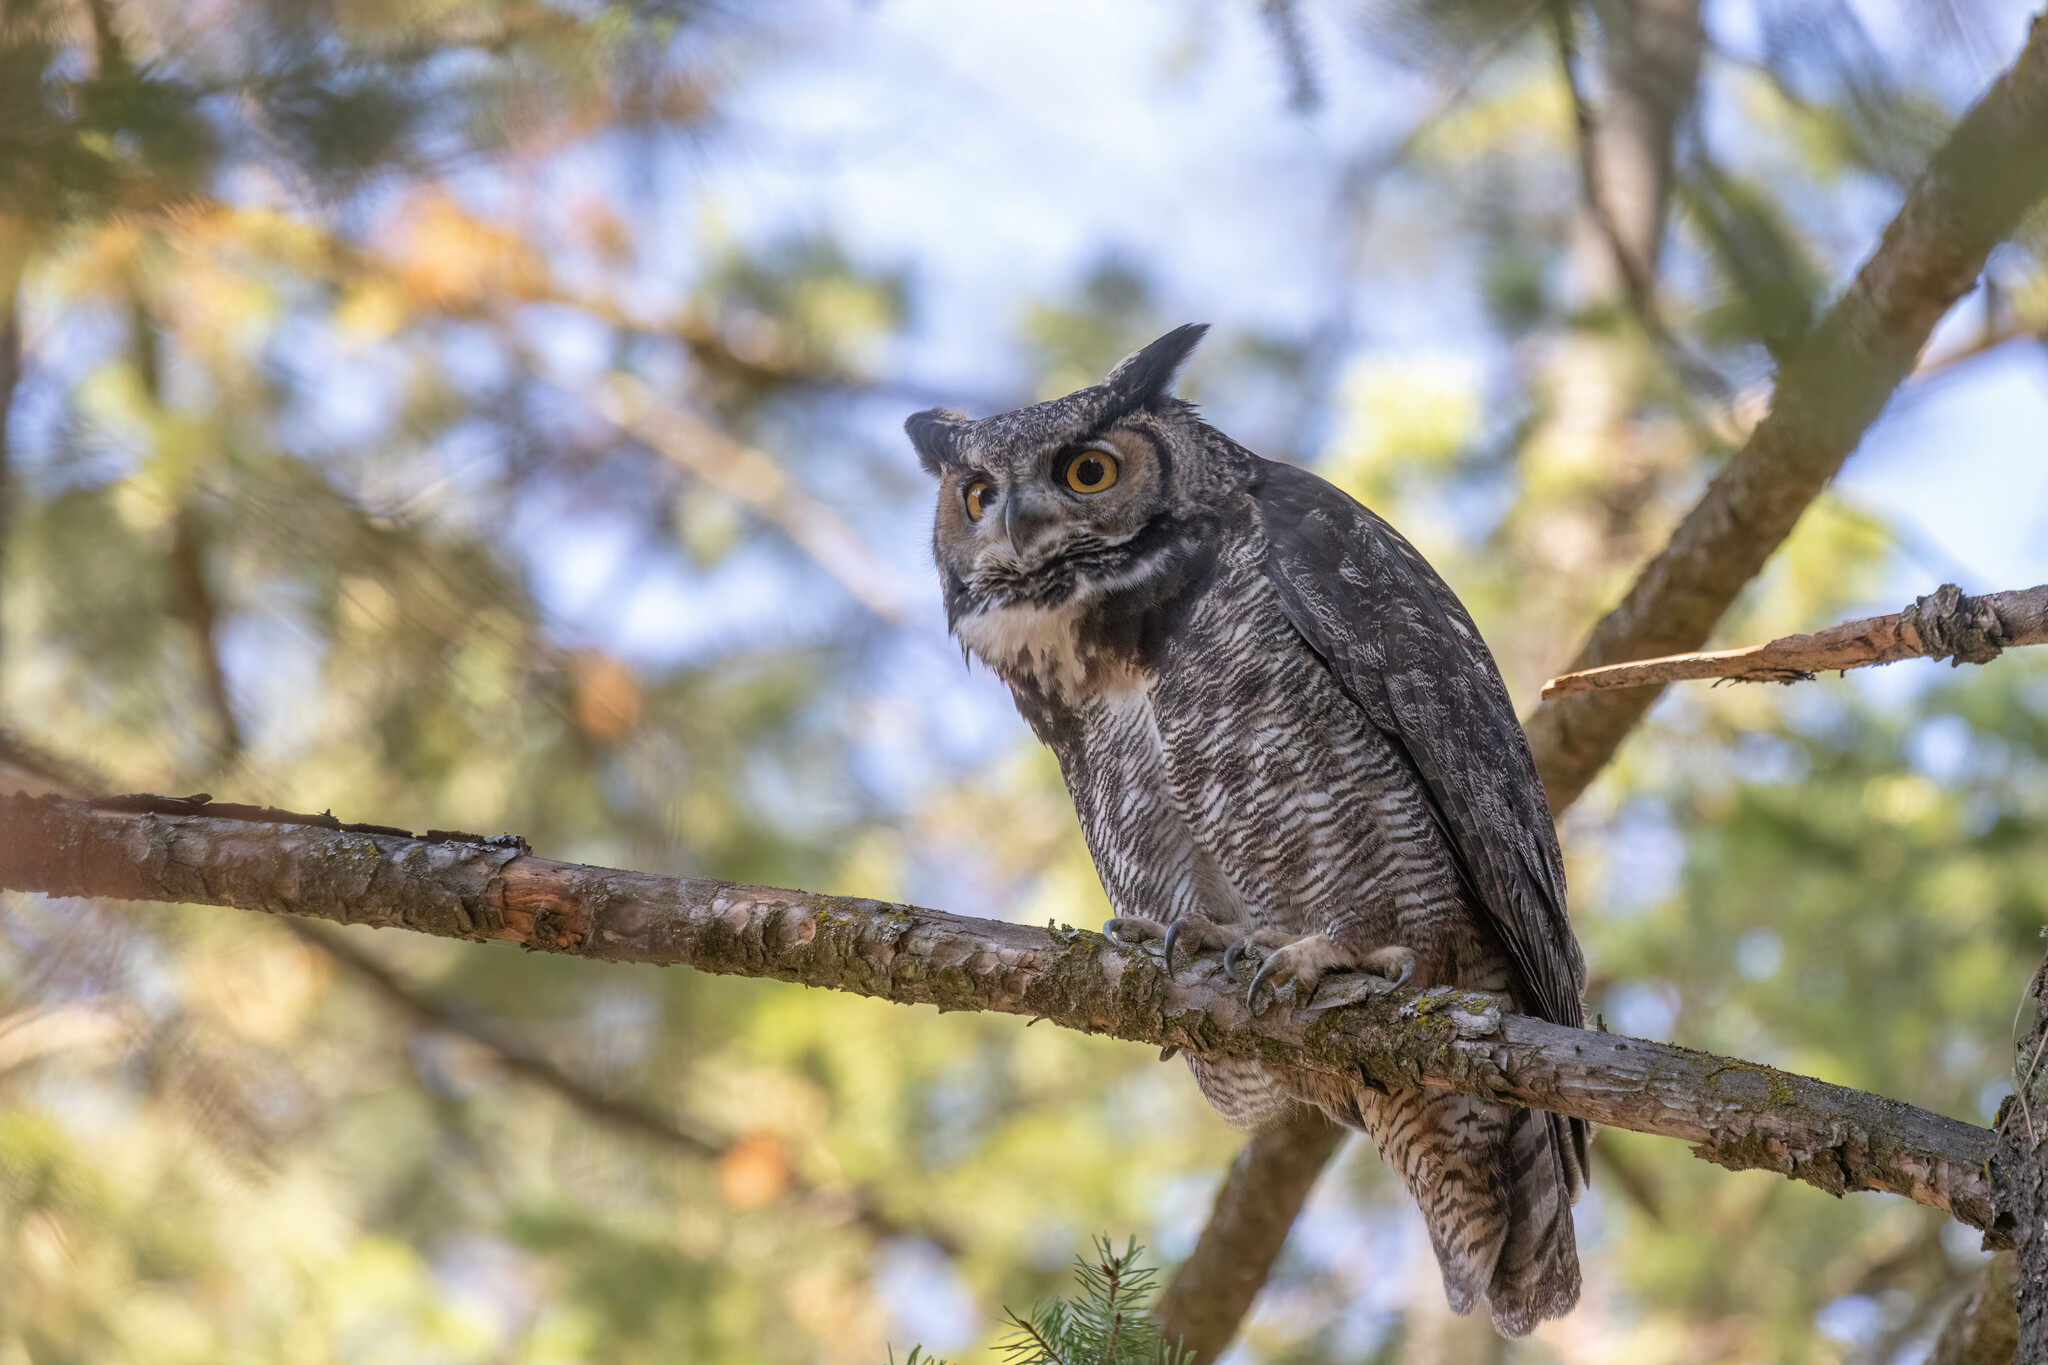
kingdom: Animalia
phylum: Chordata
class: Aves
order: Strigiformes
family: Strigidae
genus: Bubo
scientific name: Bubo virginianus
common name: Great horned owl
